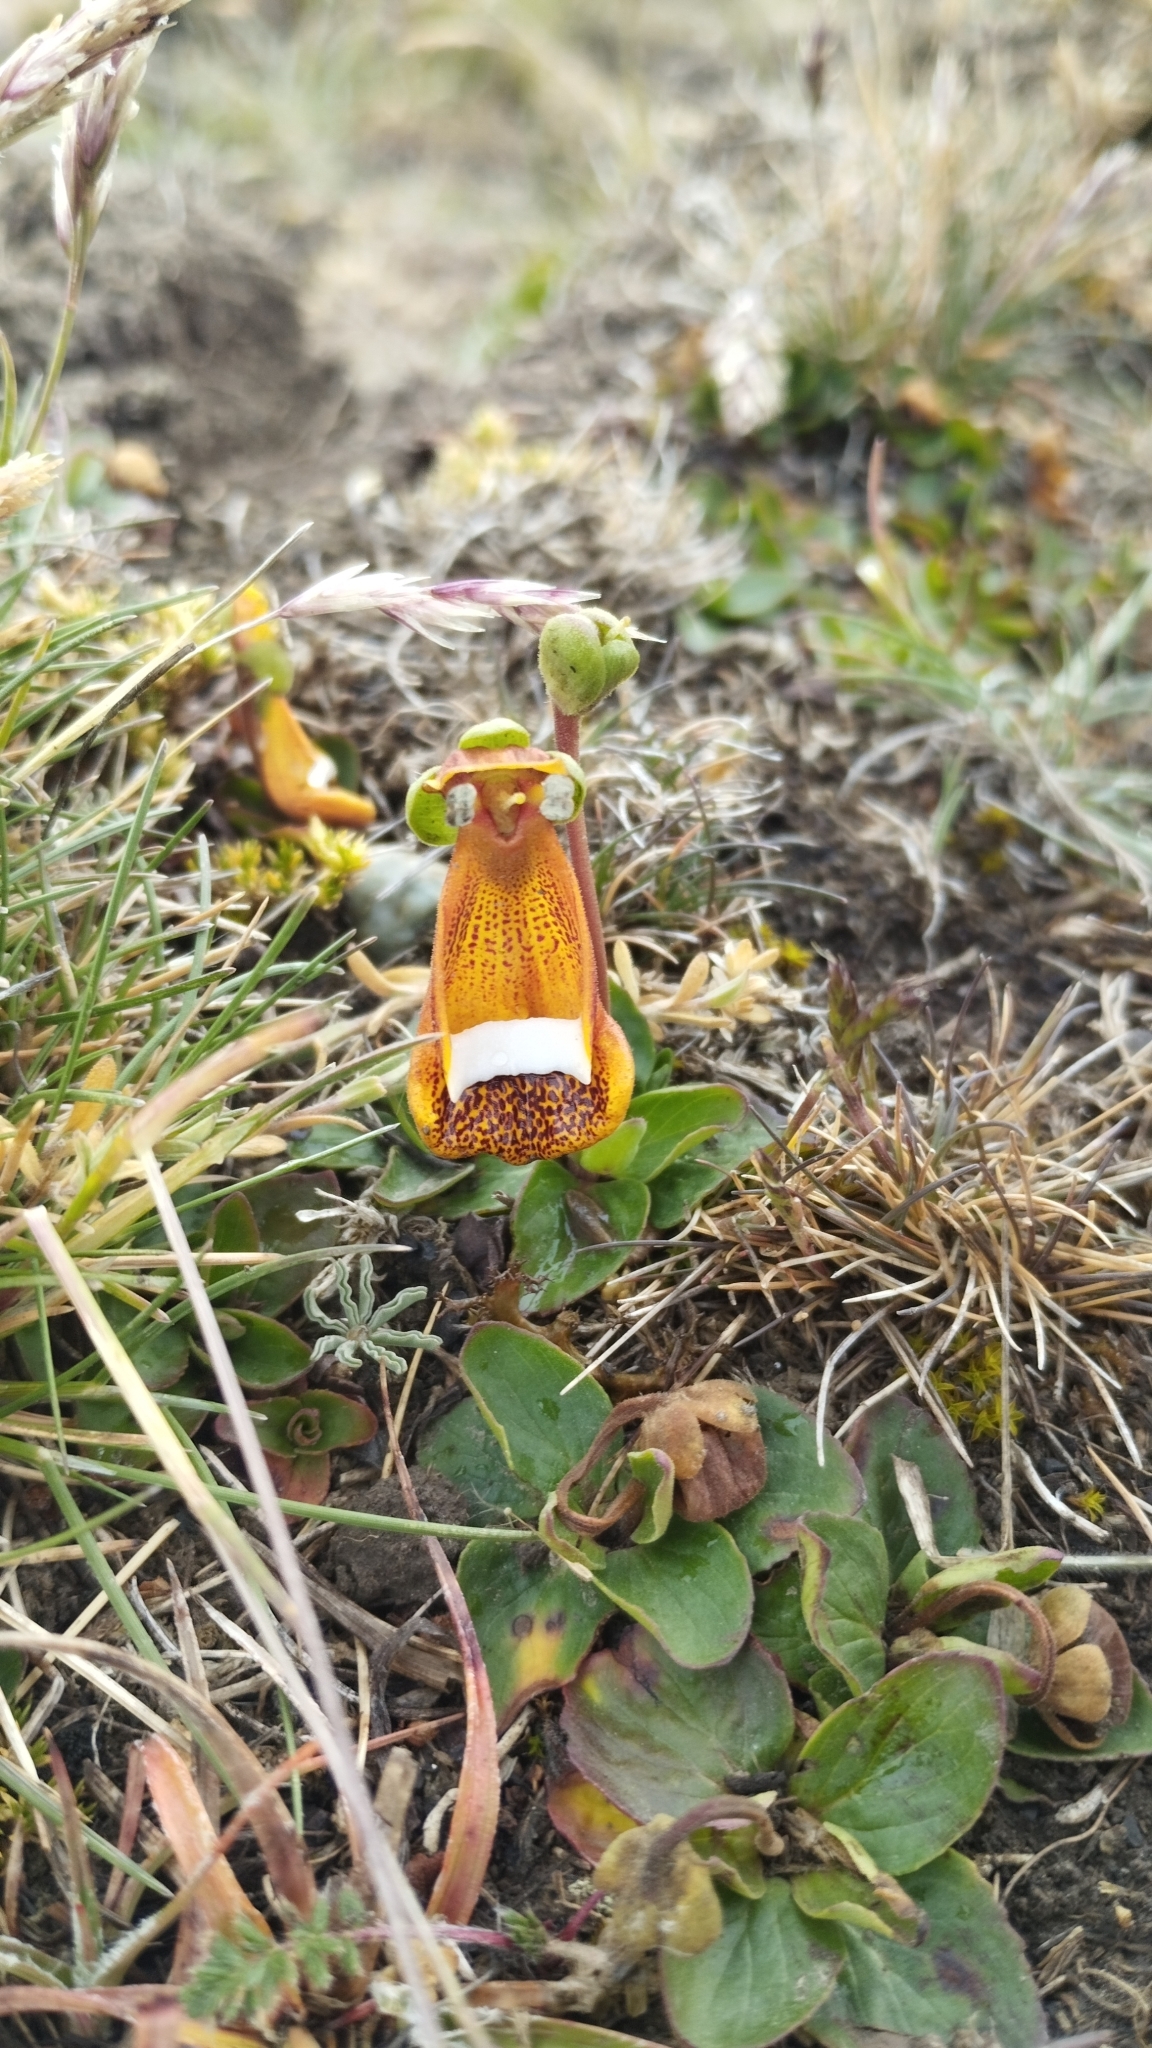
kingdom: Plantae
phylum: Tracheophyta
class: Magnoliopsida
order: Lamiales
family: Calceolariaceae
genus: Calceolaria
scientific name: Calceolaria uniflora
